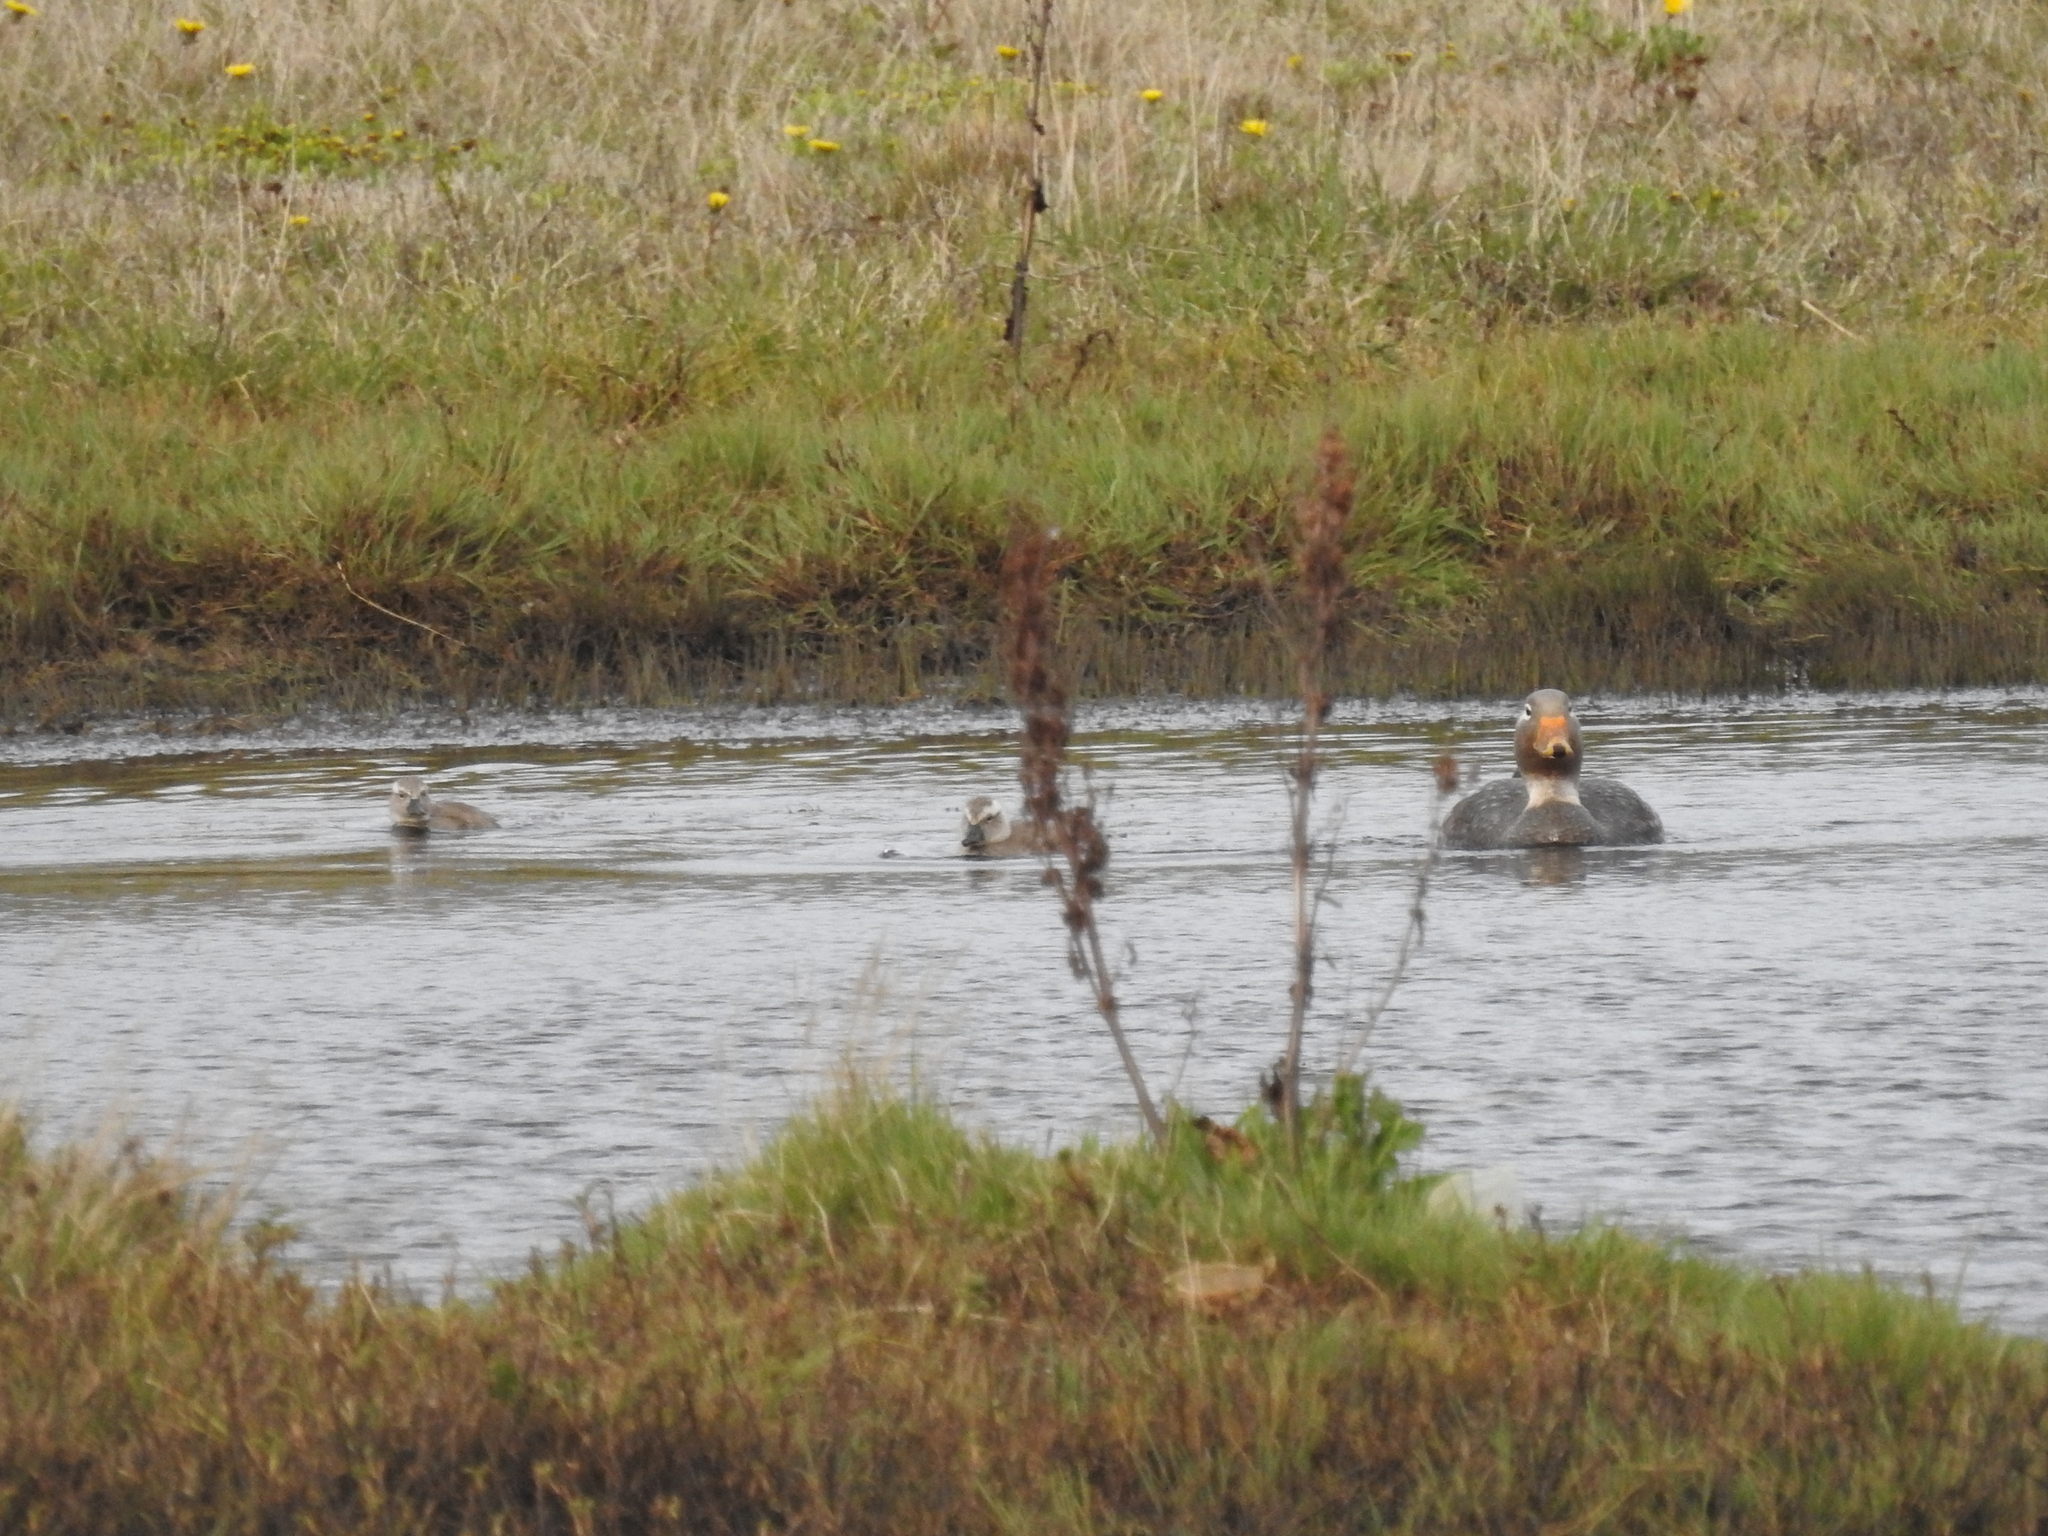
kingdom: Animalia
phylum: Chordata
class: Aves
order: Anseriformes
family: Anatidae
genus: Tachyeres
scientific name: Tachyeres patachonicus
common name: Flying steamer duck
